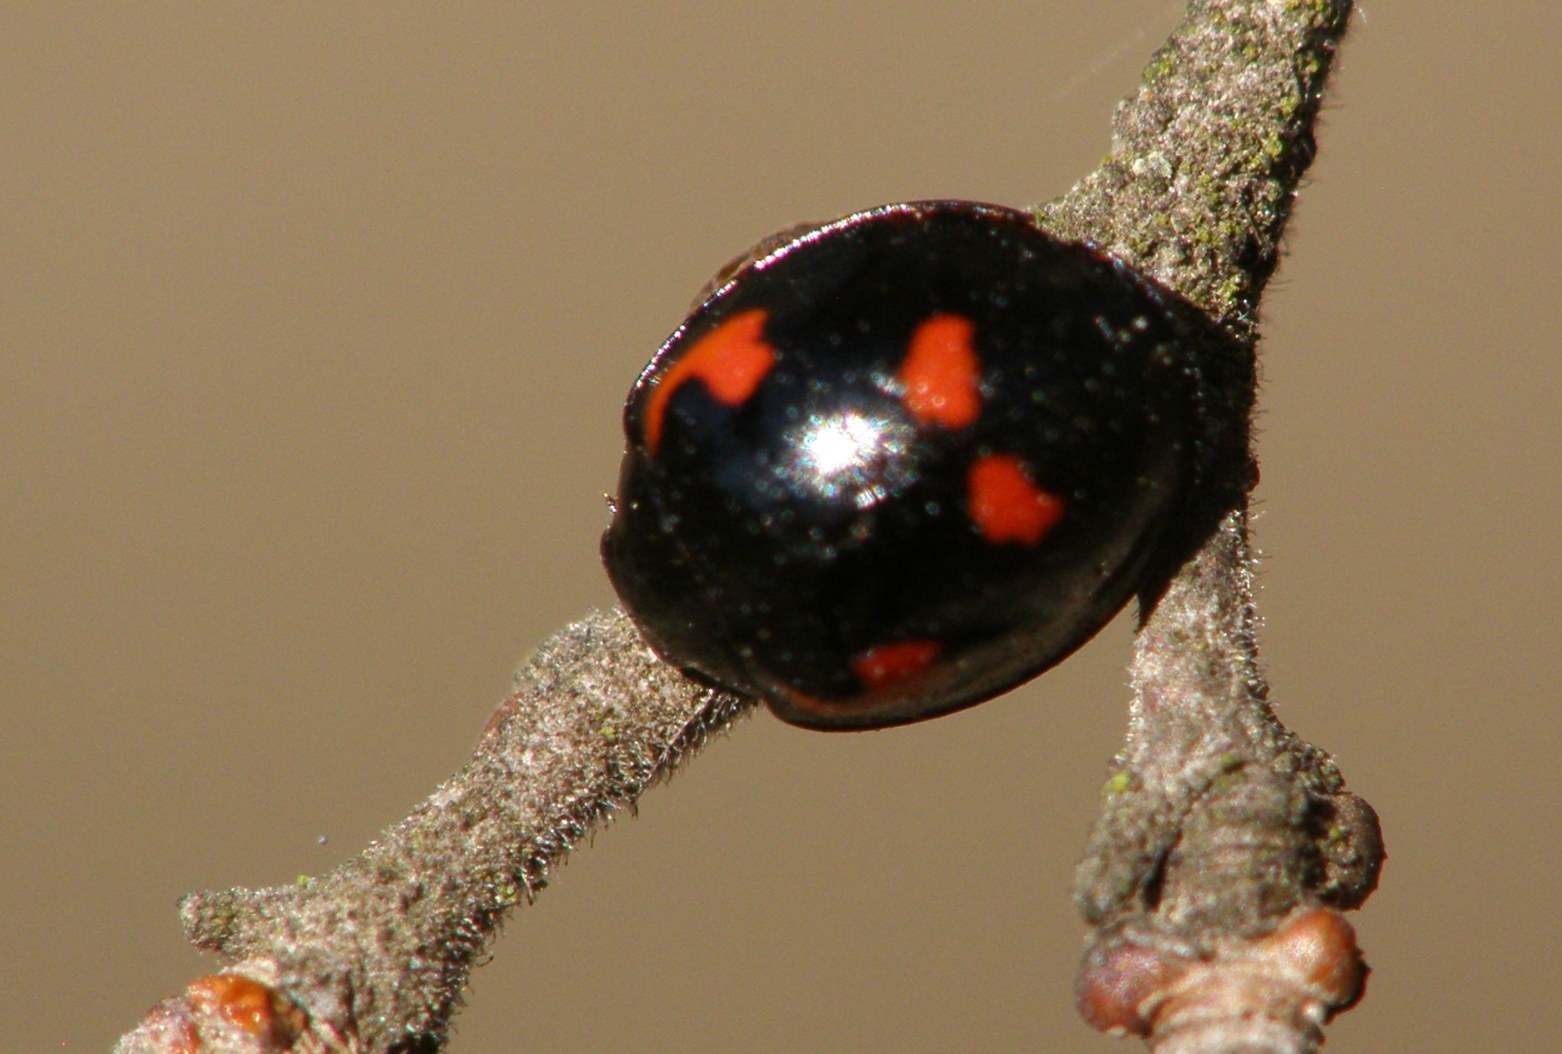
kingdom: Animalia
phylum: Arthropoda
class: Insecta
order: Coleoptera
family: Coccinellidae
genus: Brumus
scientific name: Brumus quadripustulatus
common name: Ladybird beetle
